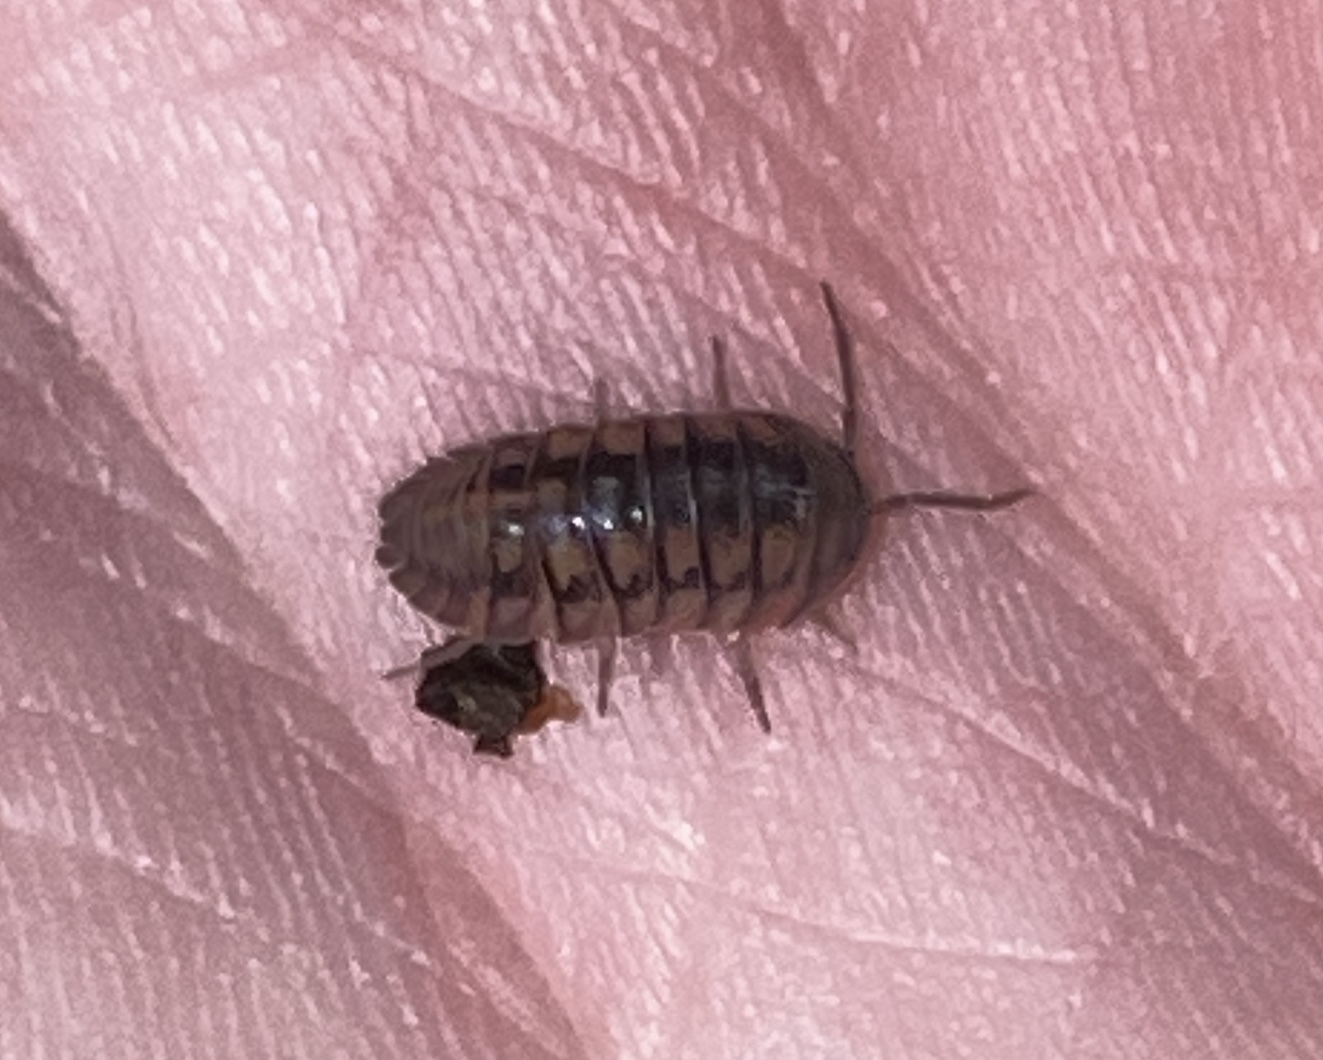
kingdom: Animalia
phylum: Arthropoda
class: Malacostraca
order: Isopoda
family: Armadillidiidae
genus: Armadillidium
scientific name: Armadillidium nasatum
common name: Isopod
